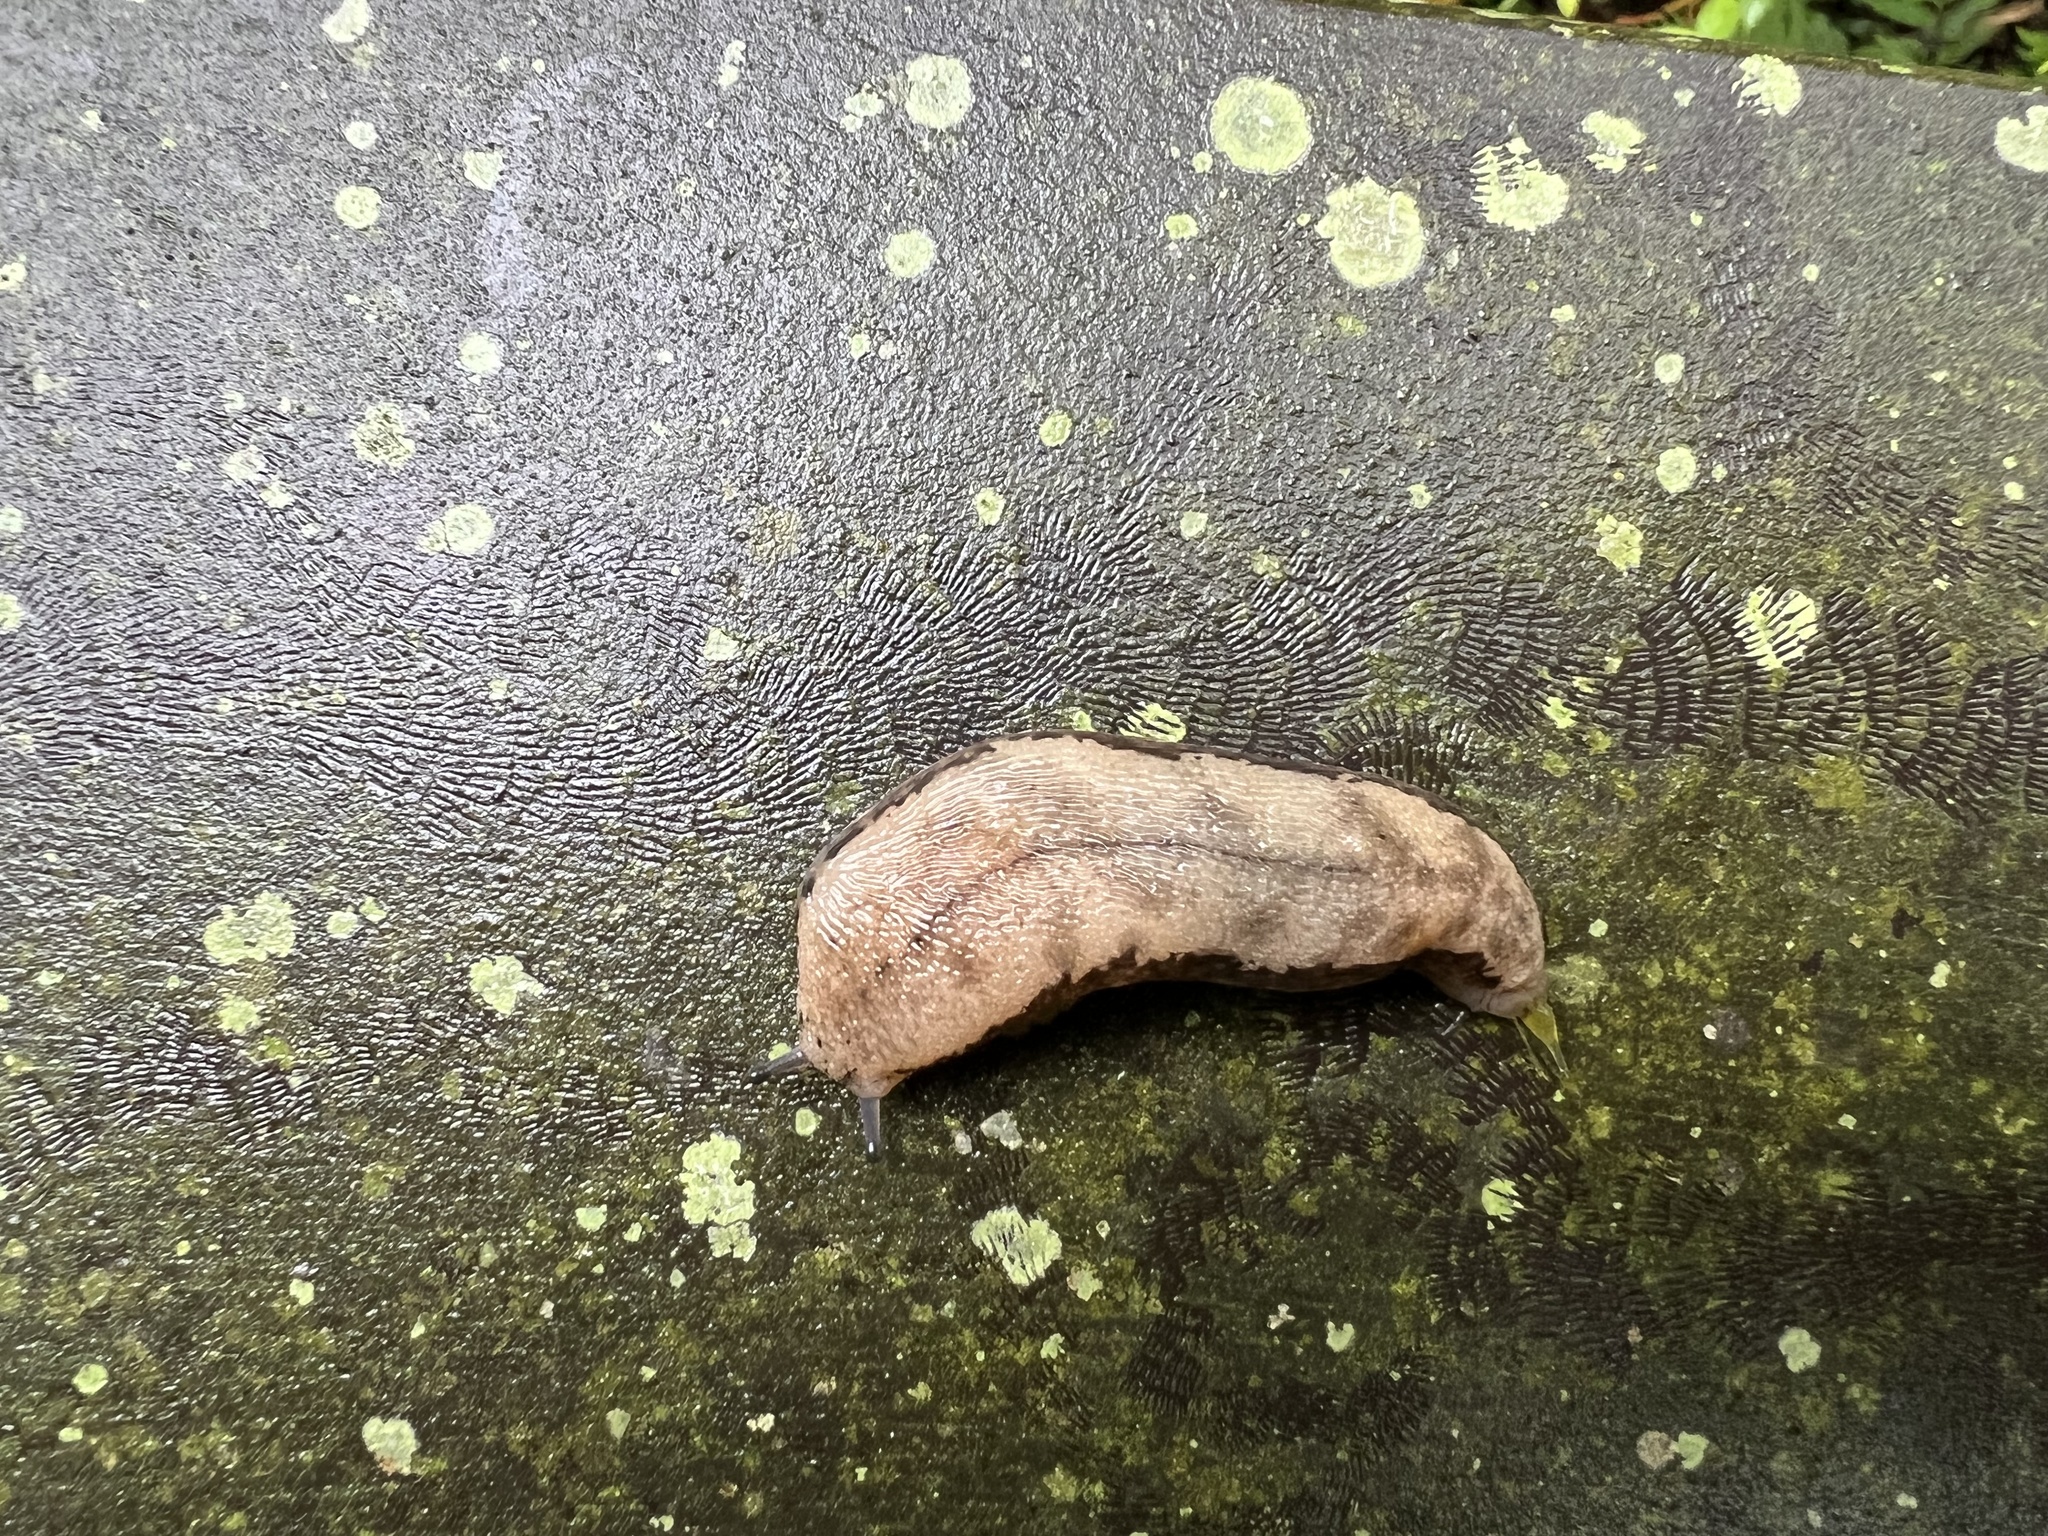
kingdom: Animalia
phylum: Mollusca
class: Gastropoda
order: Stylommatophora
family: Philomycidae
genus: Meghimatium
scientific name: Meghimatium fruhstorferi
